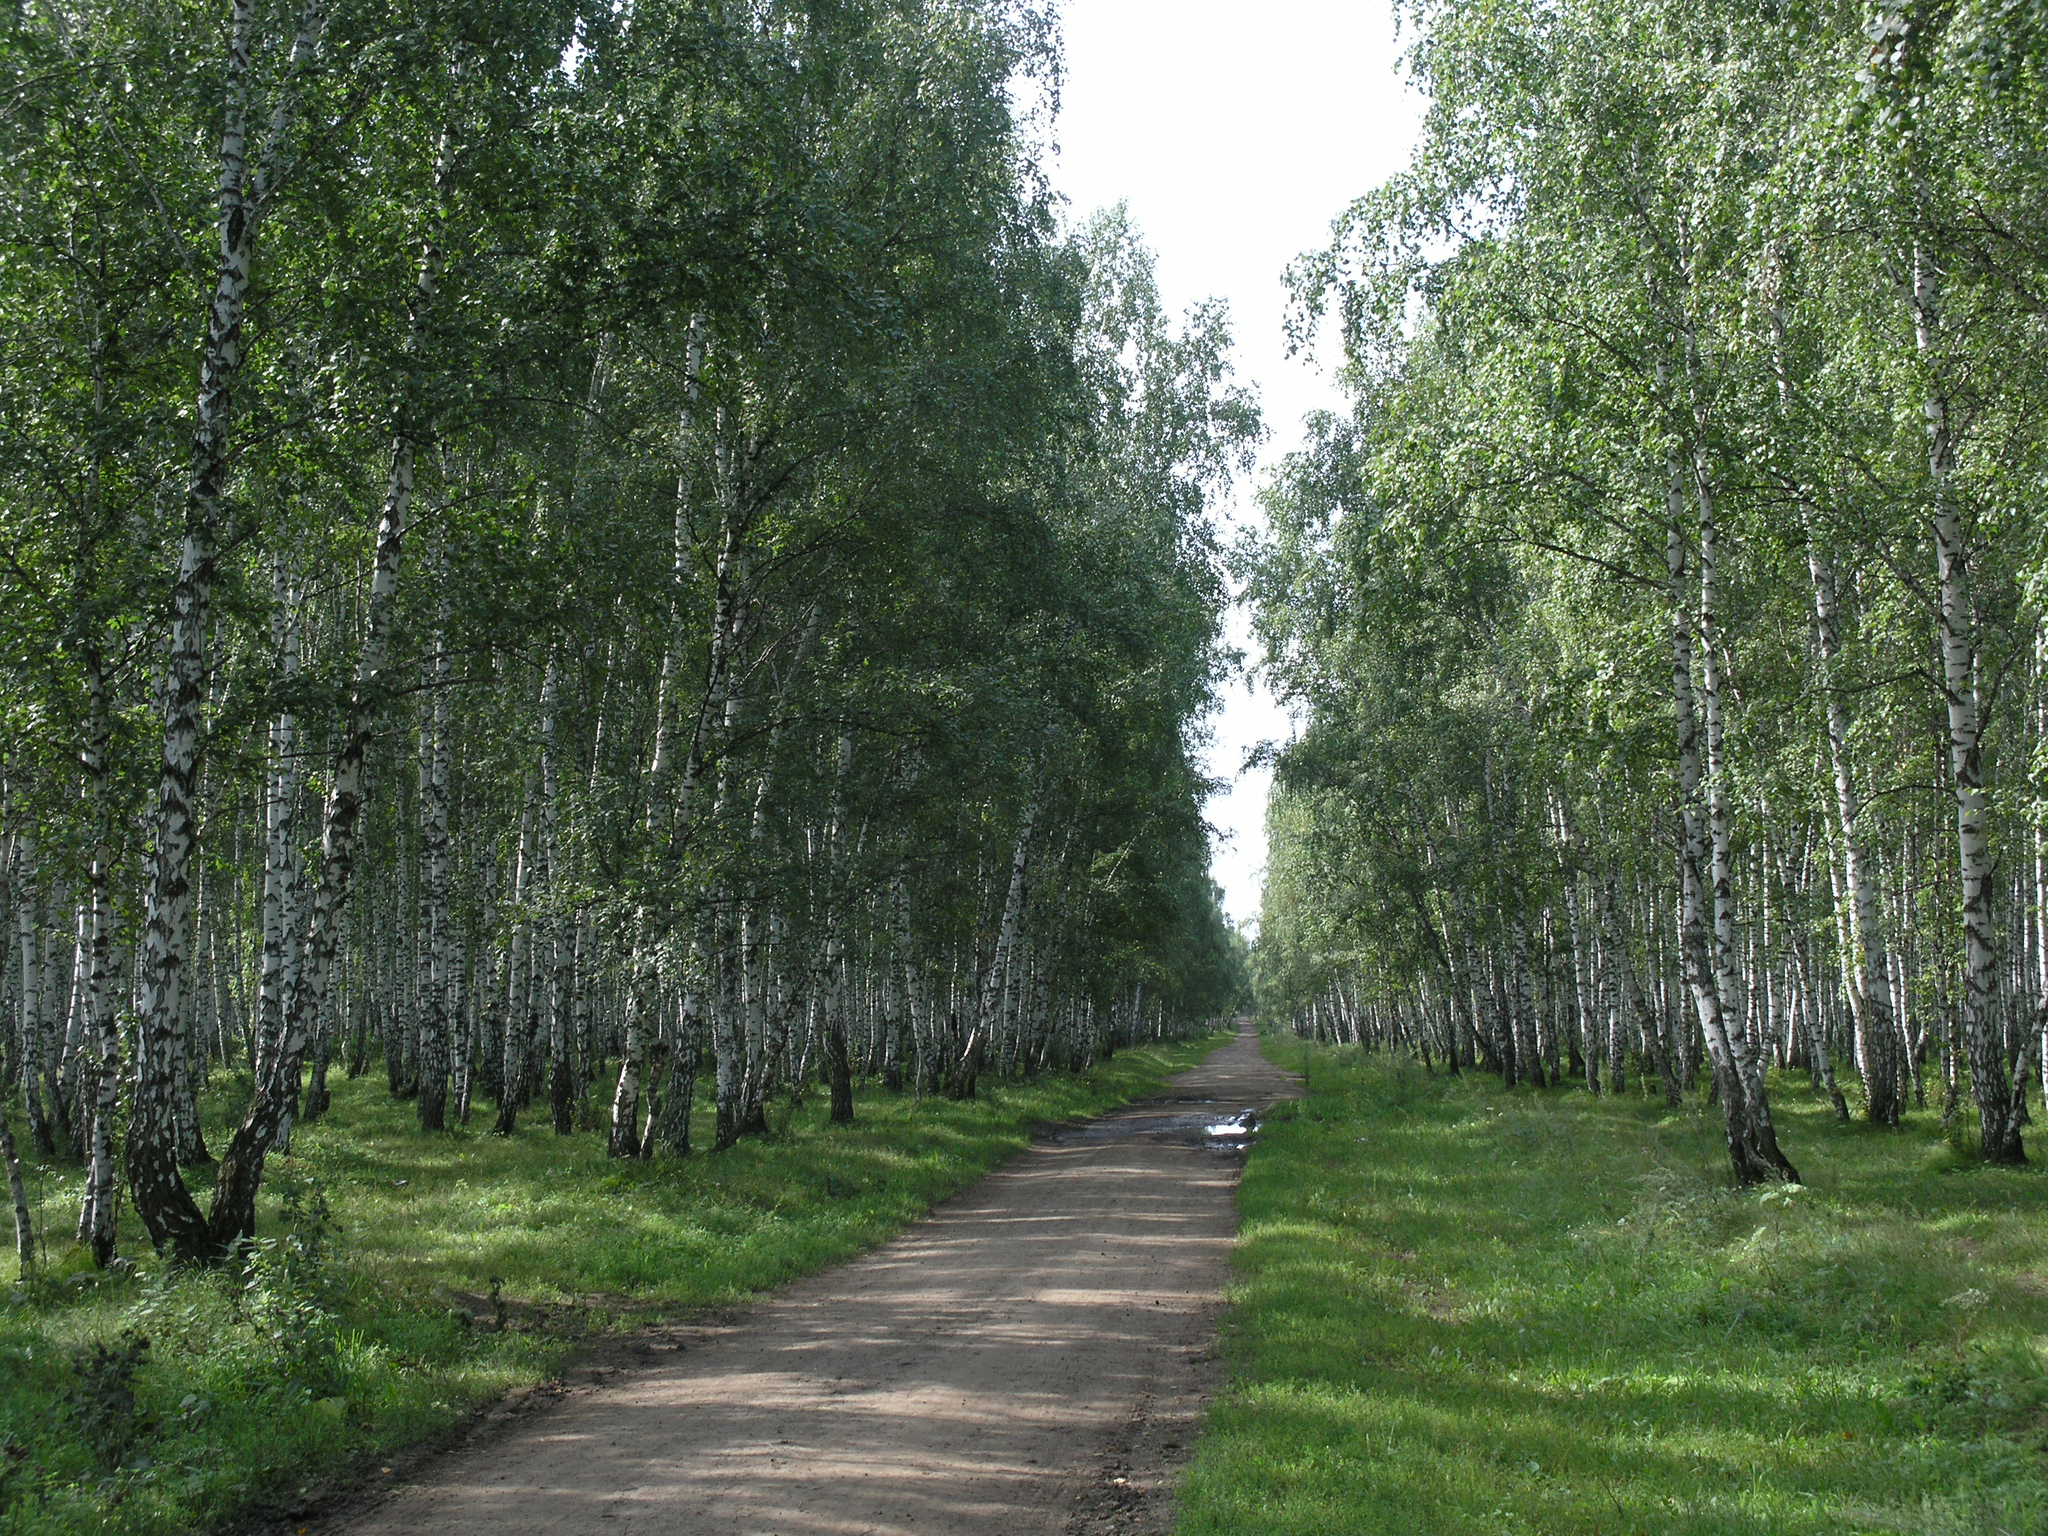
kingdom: Plantae
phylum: Tracheophyta
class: Magnoliopsida
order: Fagales
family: Betulaceae
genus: Betula
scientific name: Betula pendula
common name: Silver birch
